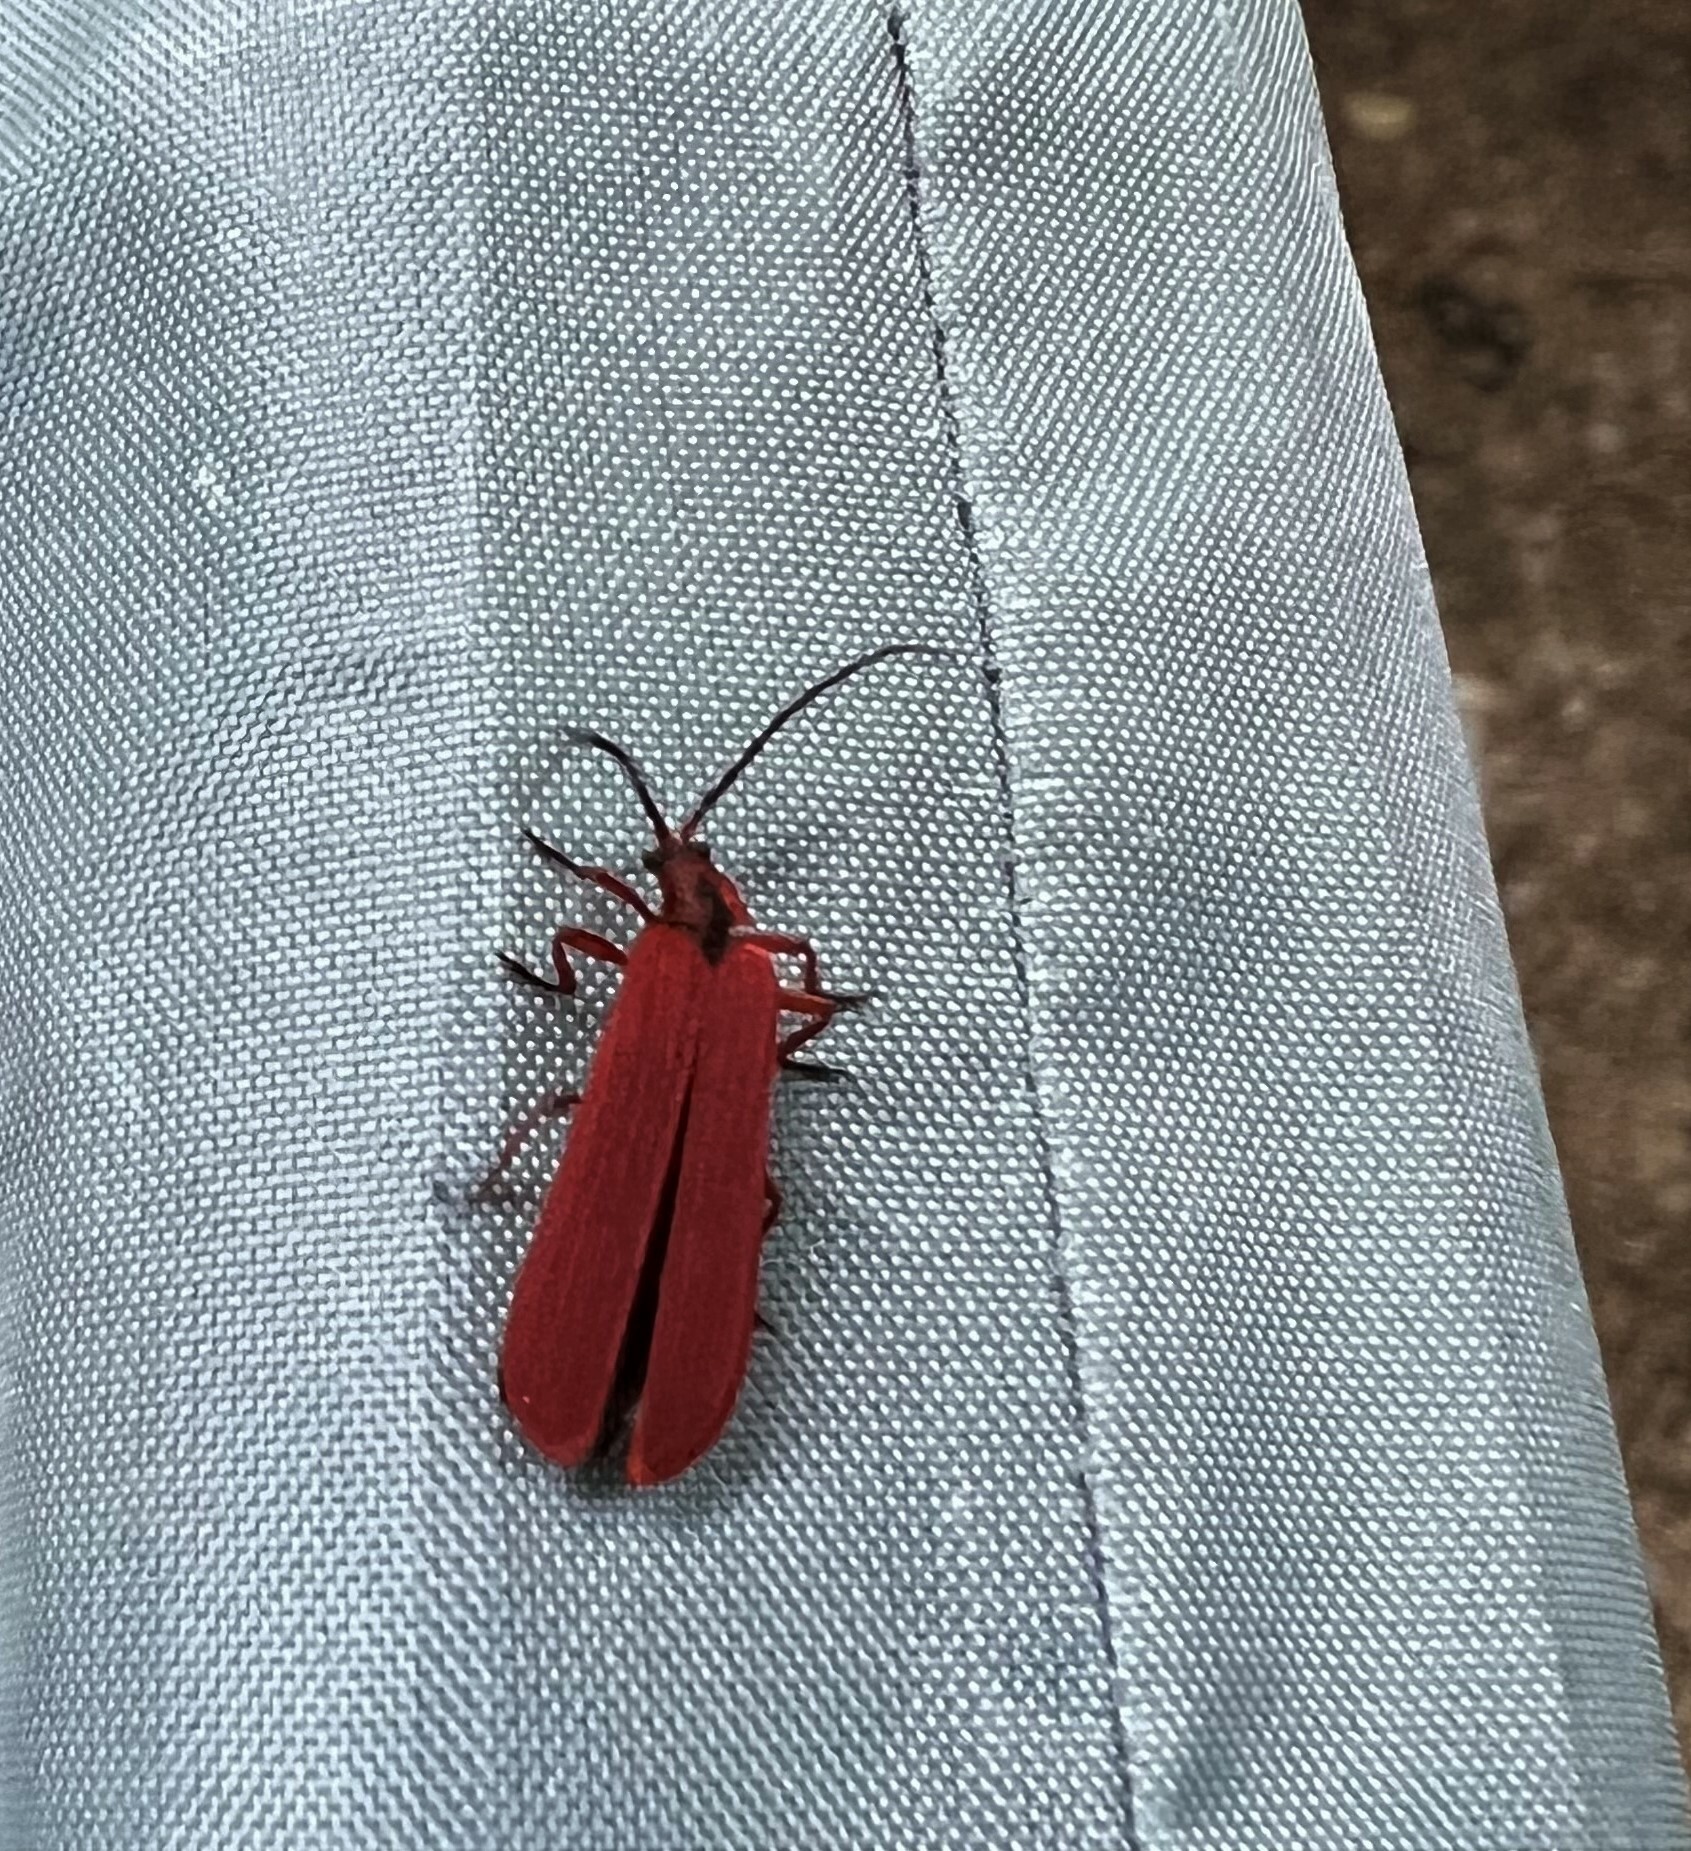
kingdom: Animalia
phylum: Arthropoda
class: Insecta
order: Coleoptera
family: Lycidae
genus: Dictyoptera
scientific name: Dictyoptera simplicipes
